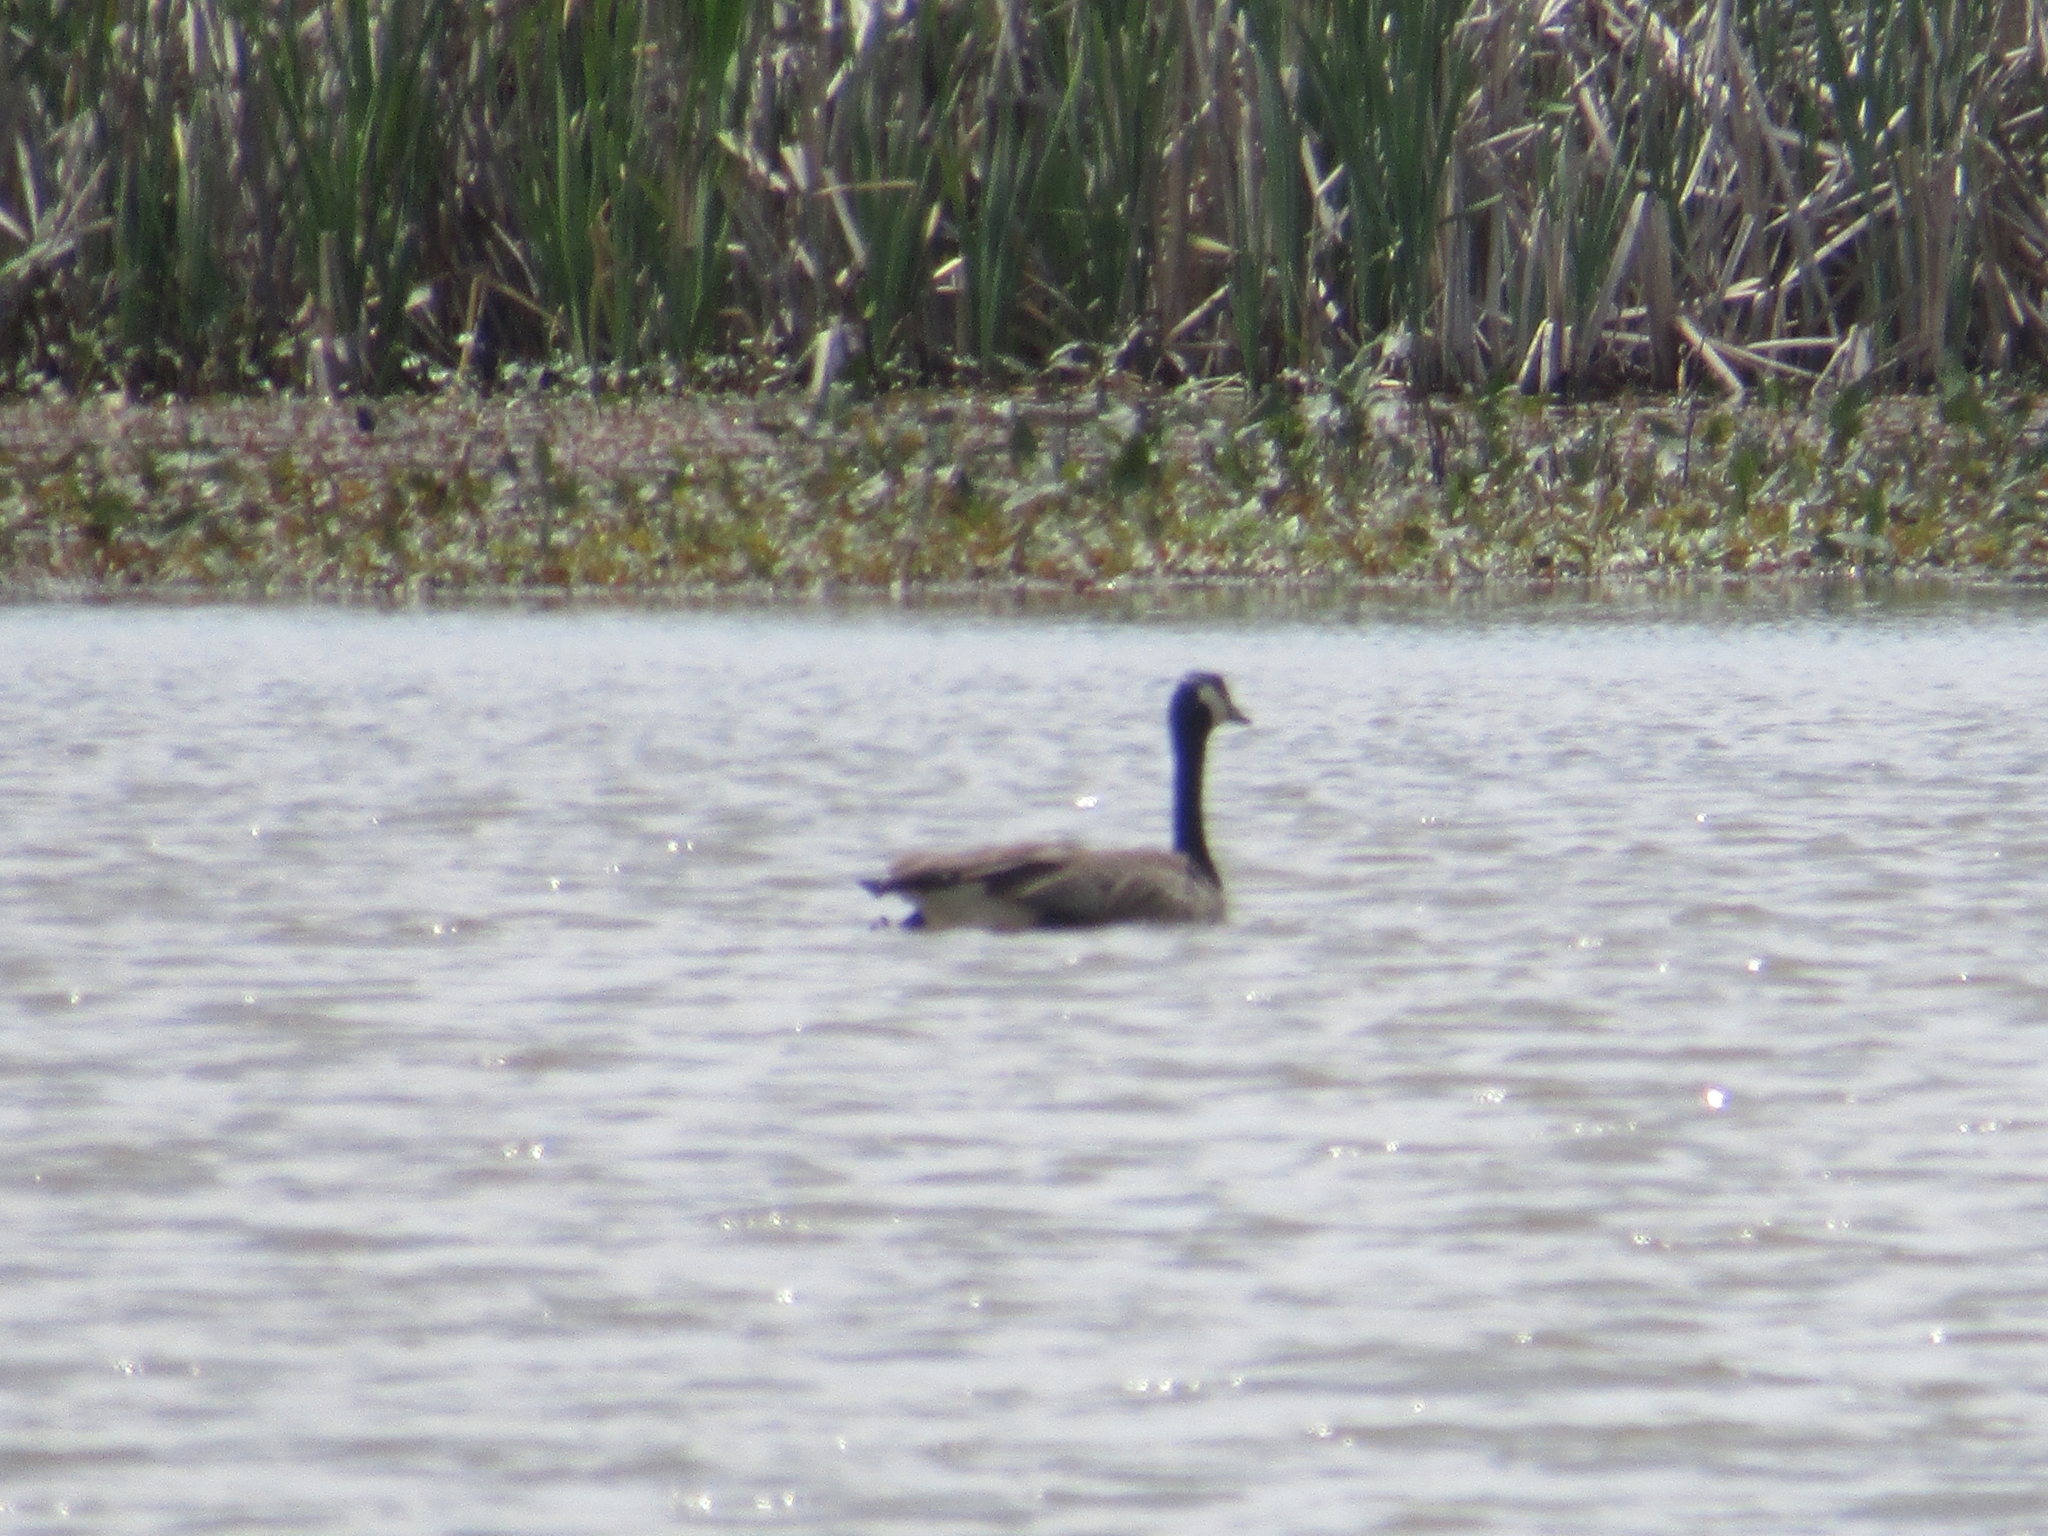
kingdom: Animalia
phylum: Chordata
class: Aves
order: Anseriformes
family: Anatidae
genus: Branta
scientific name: Branta canadensis
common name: Canada goose
